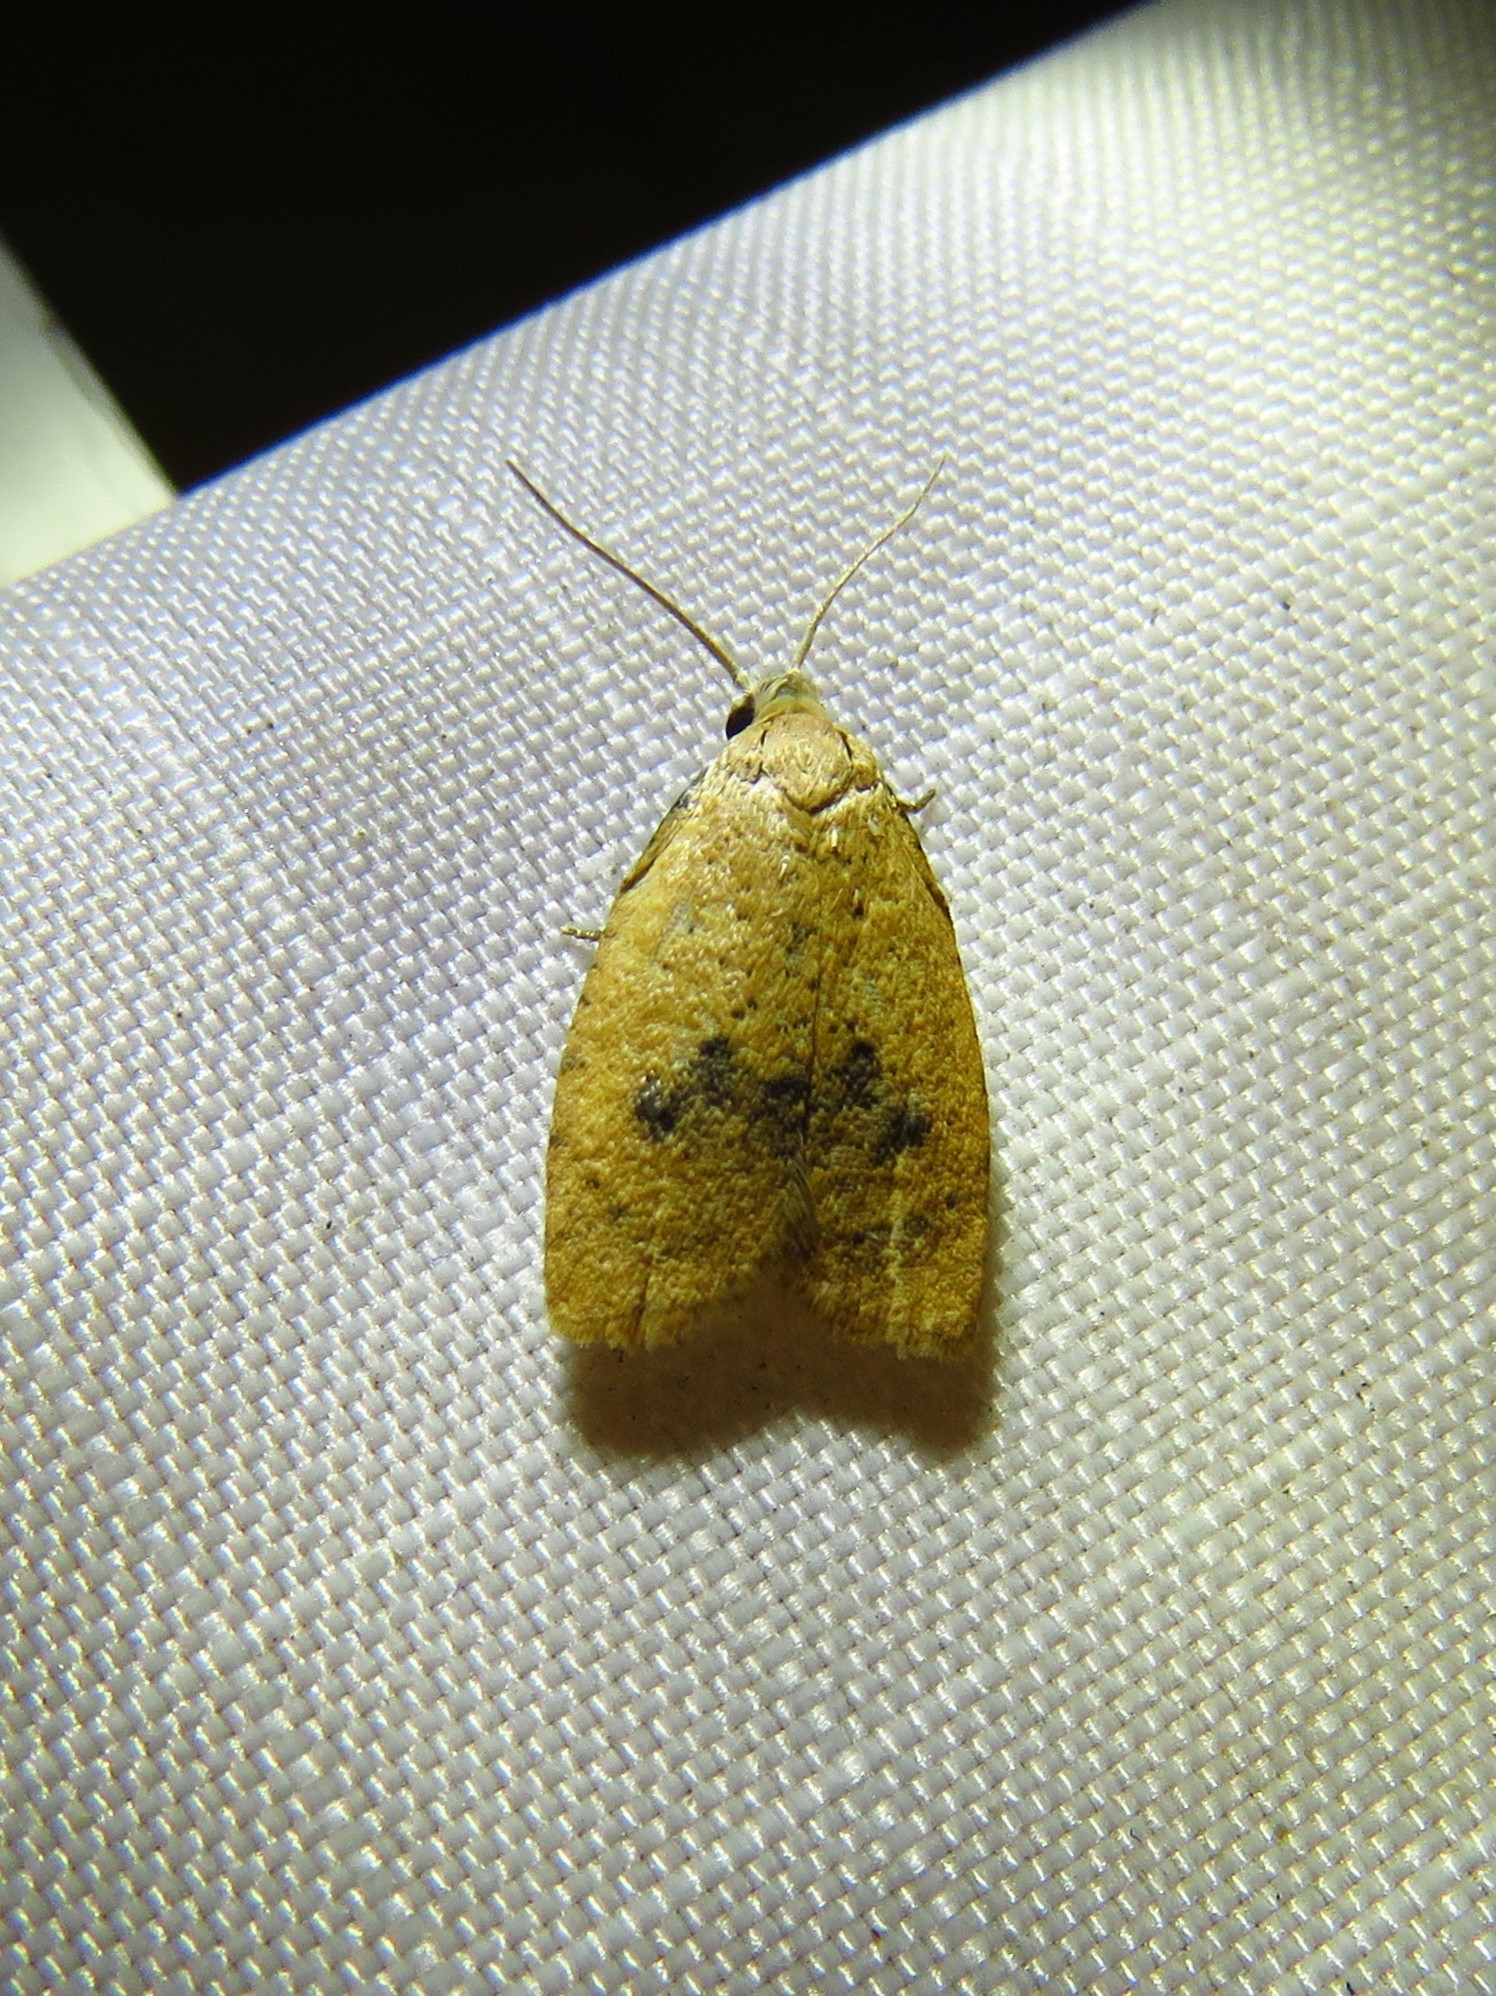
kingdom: Animalia
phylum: Arthropoda
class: Insecta
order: Lepidoptera
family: Tortricidae
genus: Sparganothoides
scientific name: Sparganothoides lentiginosana
